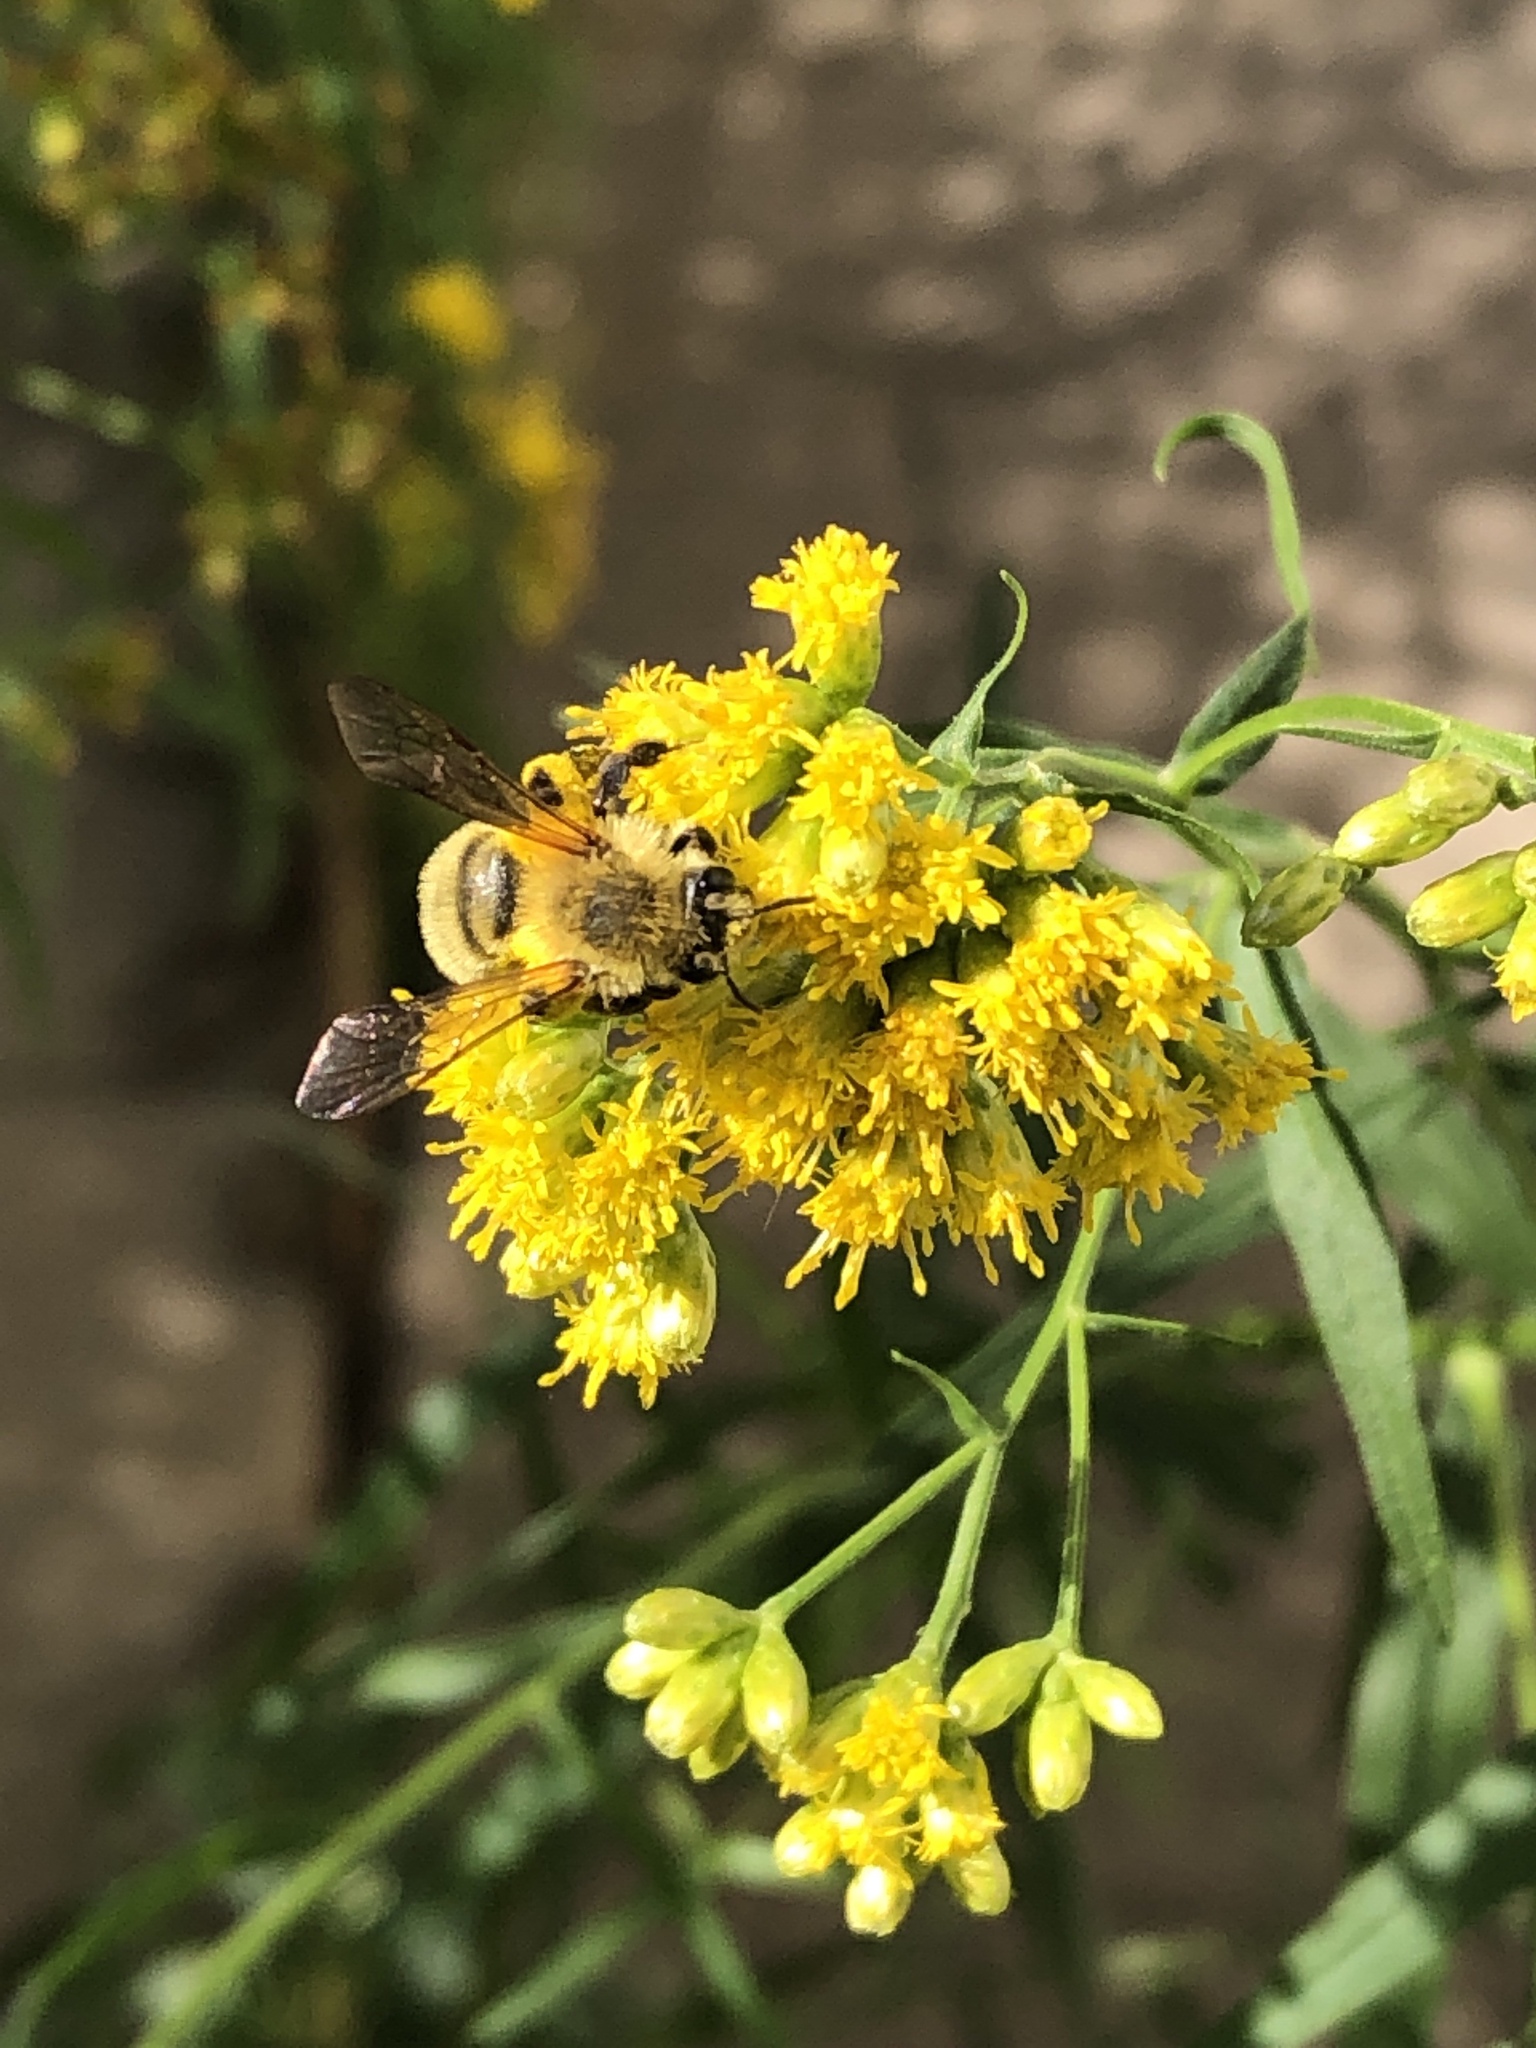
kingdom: Animalia
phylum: Arthropoda
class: Insecta
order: Hymenoptera
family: Andrenidae
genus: Andrena
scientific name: Andrena hirticincta
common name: Hairy-banded mining bee
